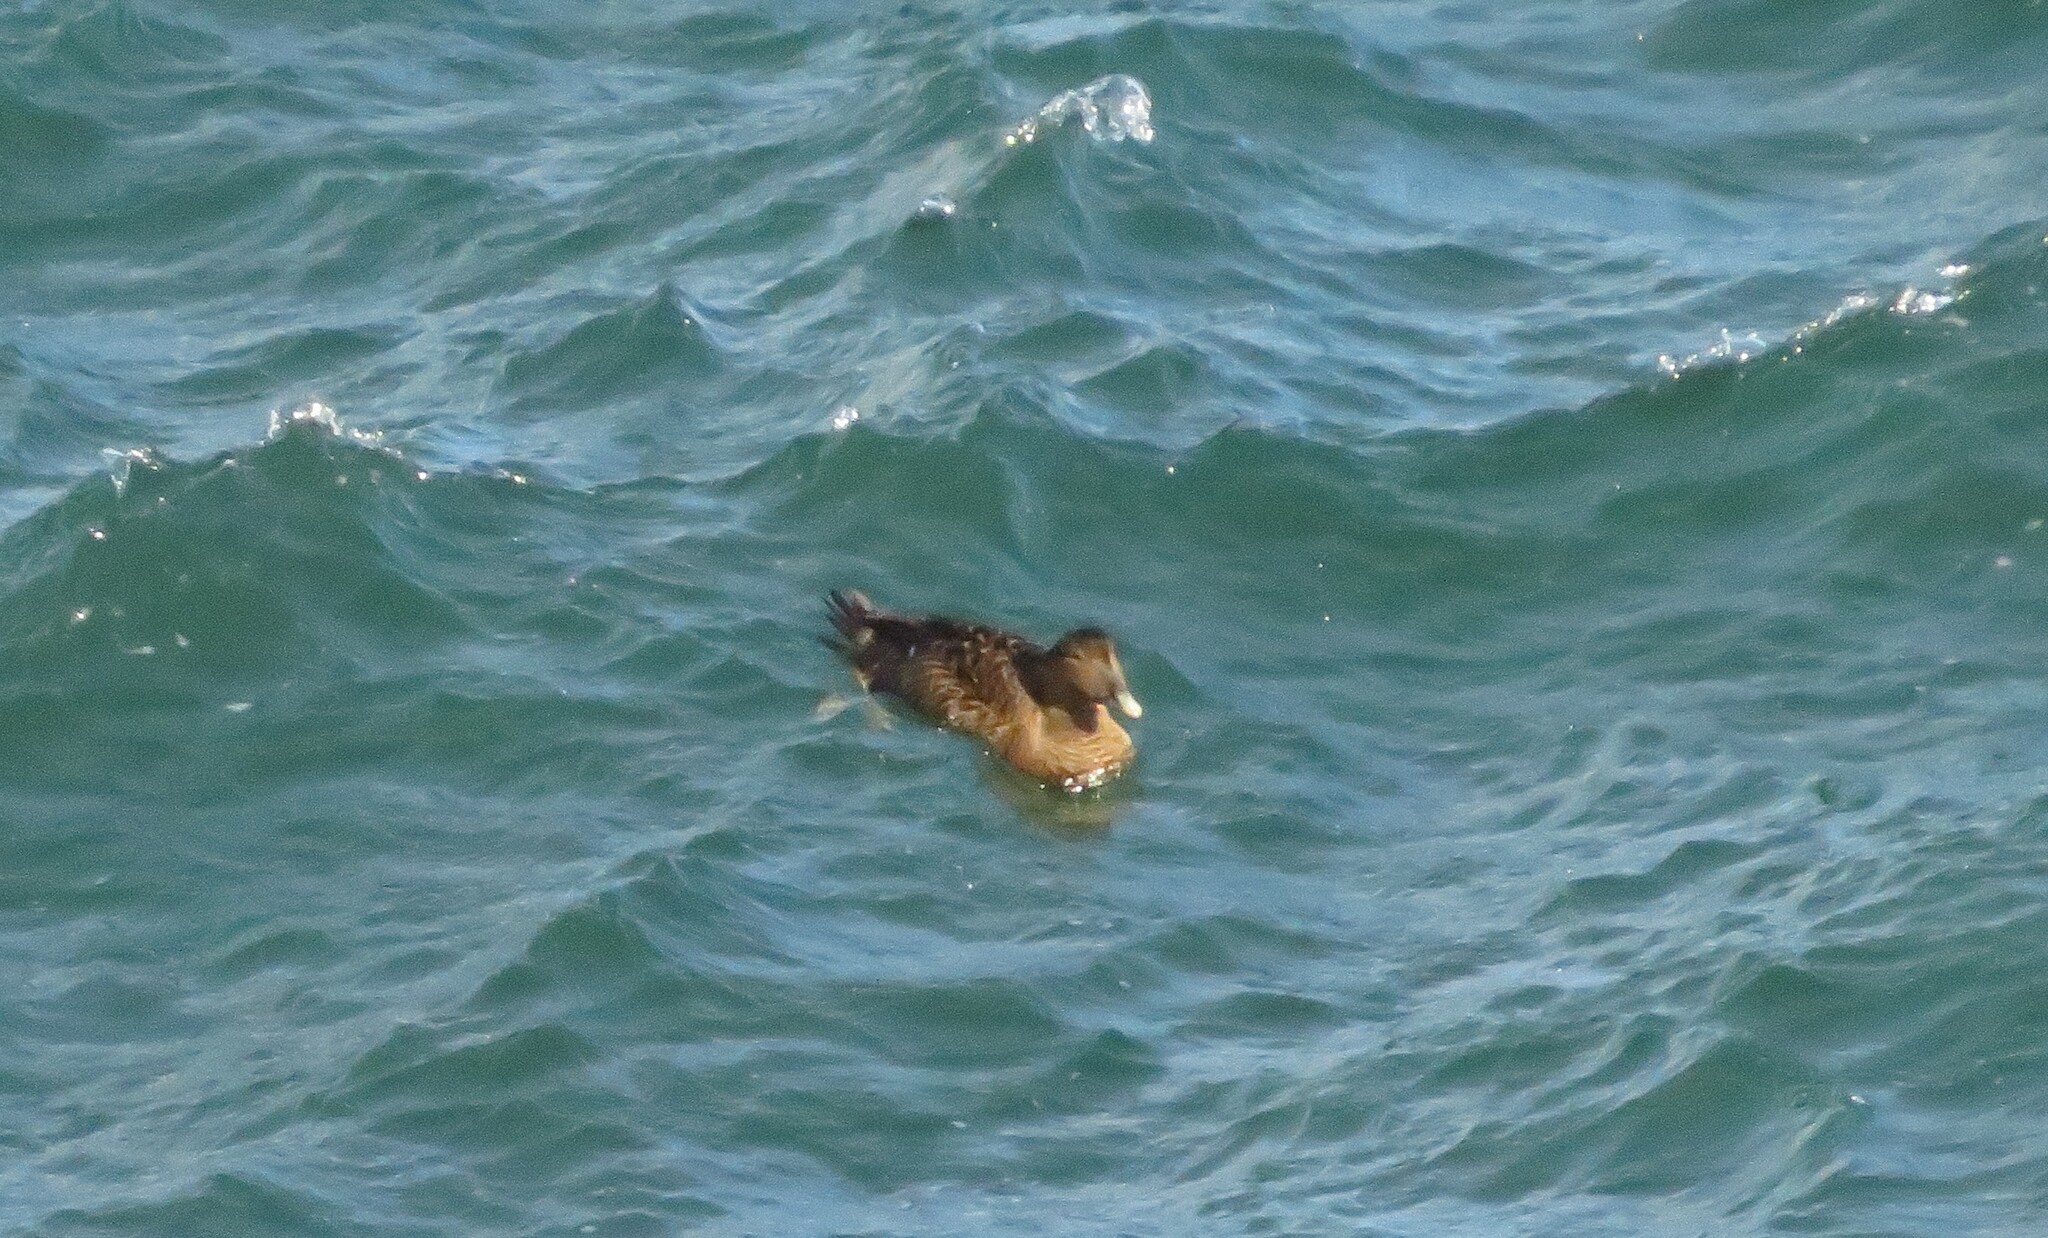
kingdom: Animalia
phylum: Chordata
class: Aves
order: Anseriformes
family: Anatidae
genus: Somateria
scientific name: Somateria mollissima
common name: Common eider
